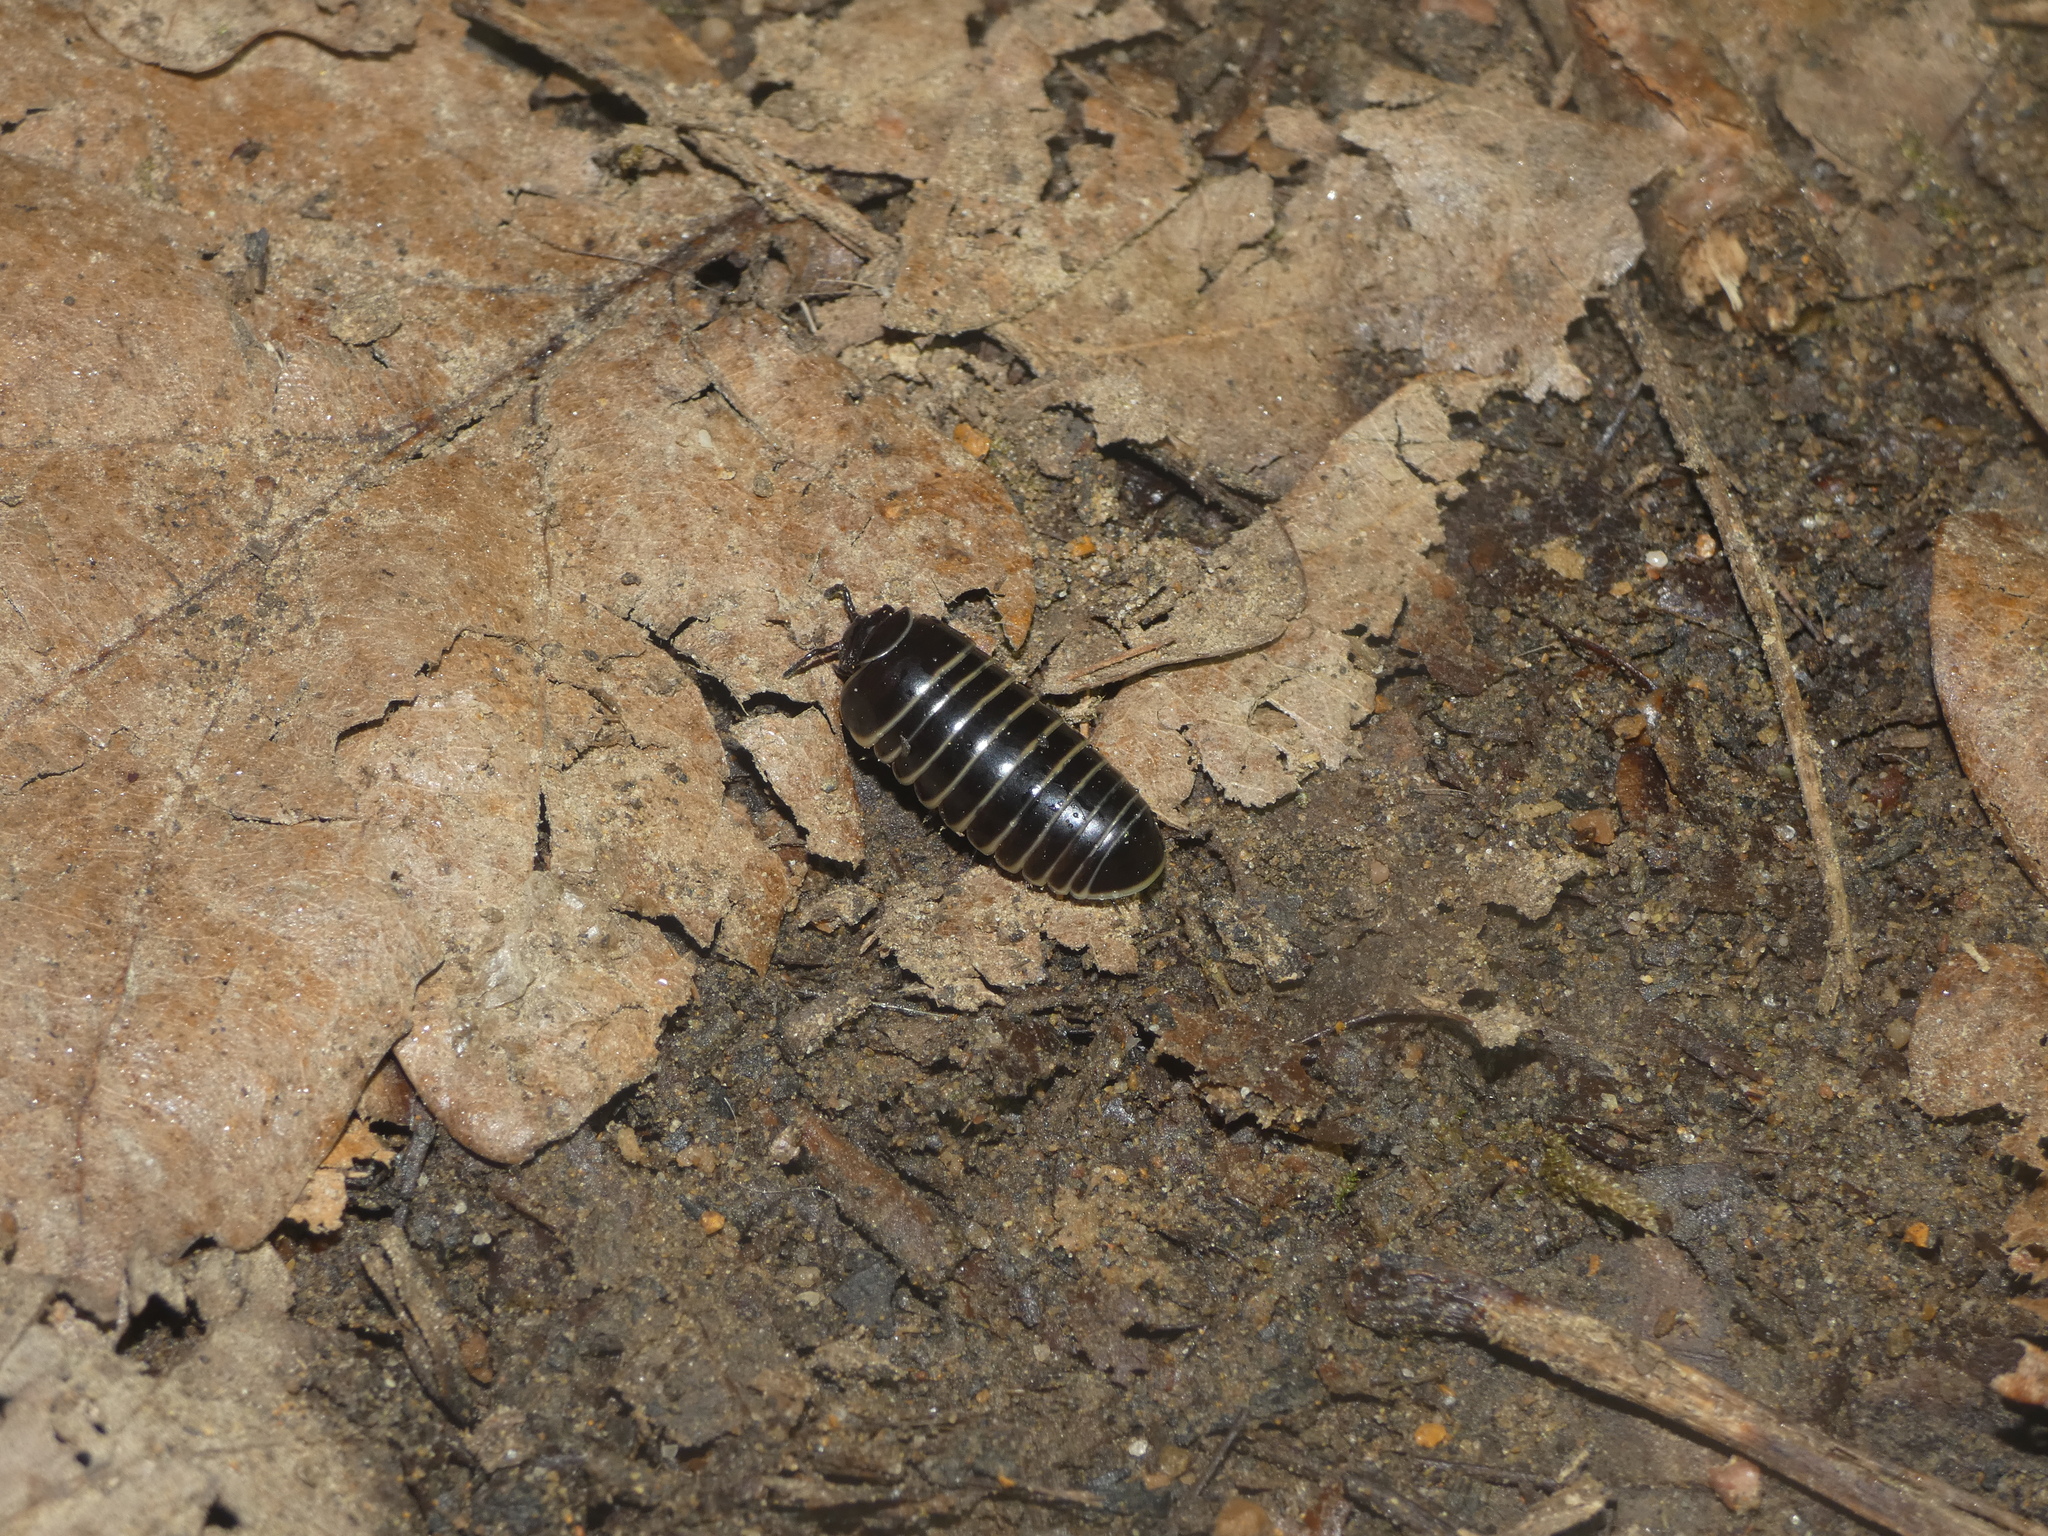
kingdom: Animalia
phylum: Arthropoda
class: Diplopoda
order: Glomerida
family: Glomeridae
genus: Glomeris
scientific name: Glomeris marginata
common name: Bordered pill millipede
